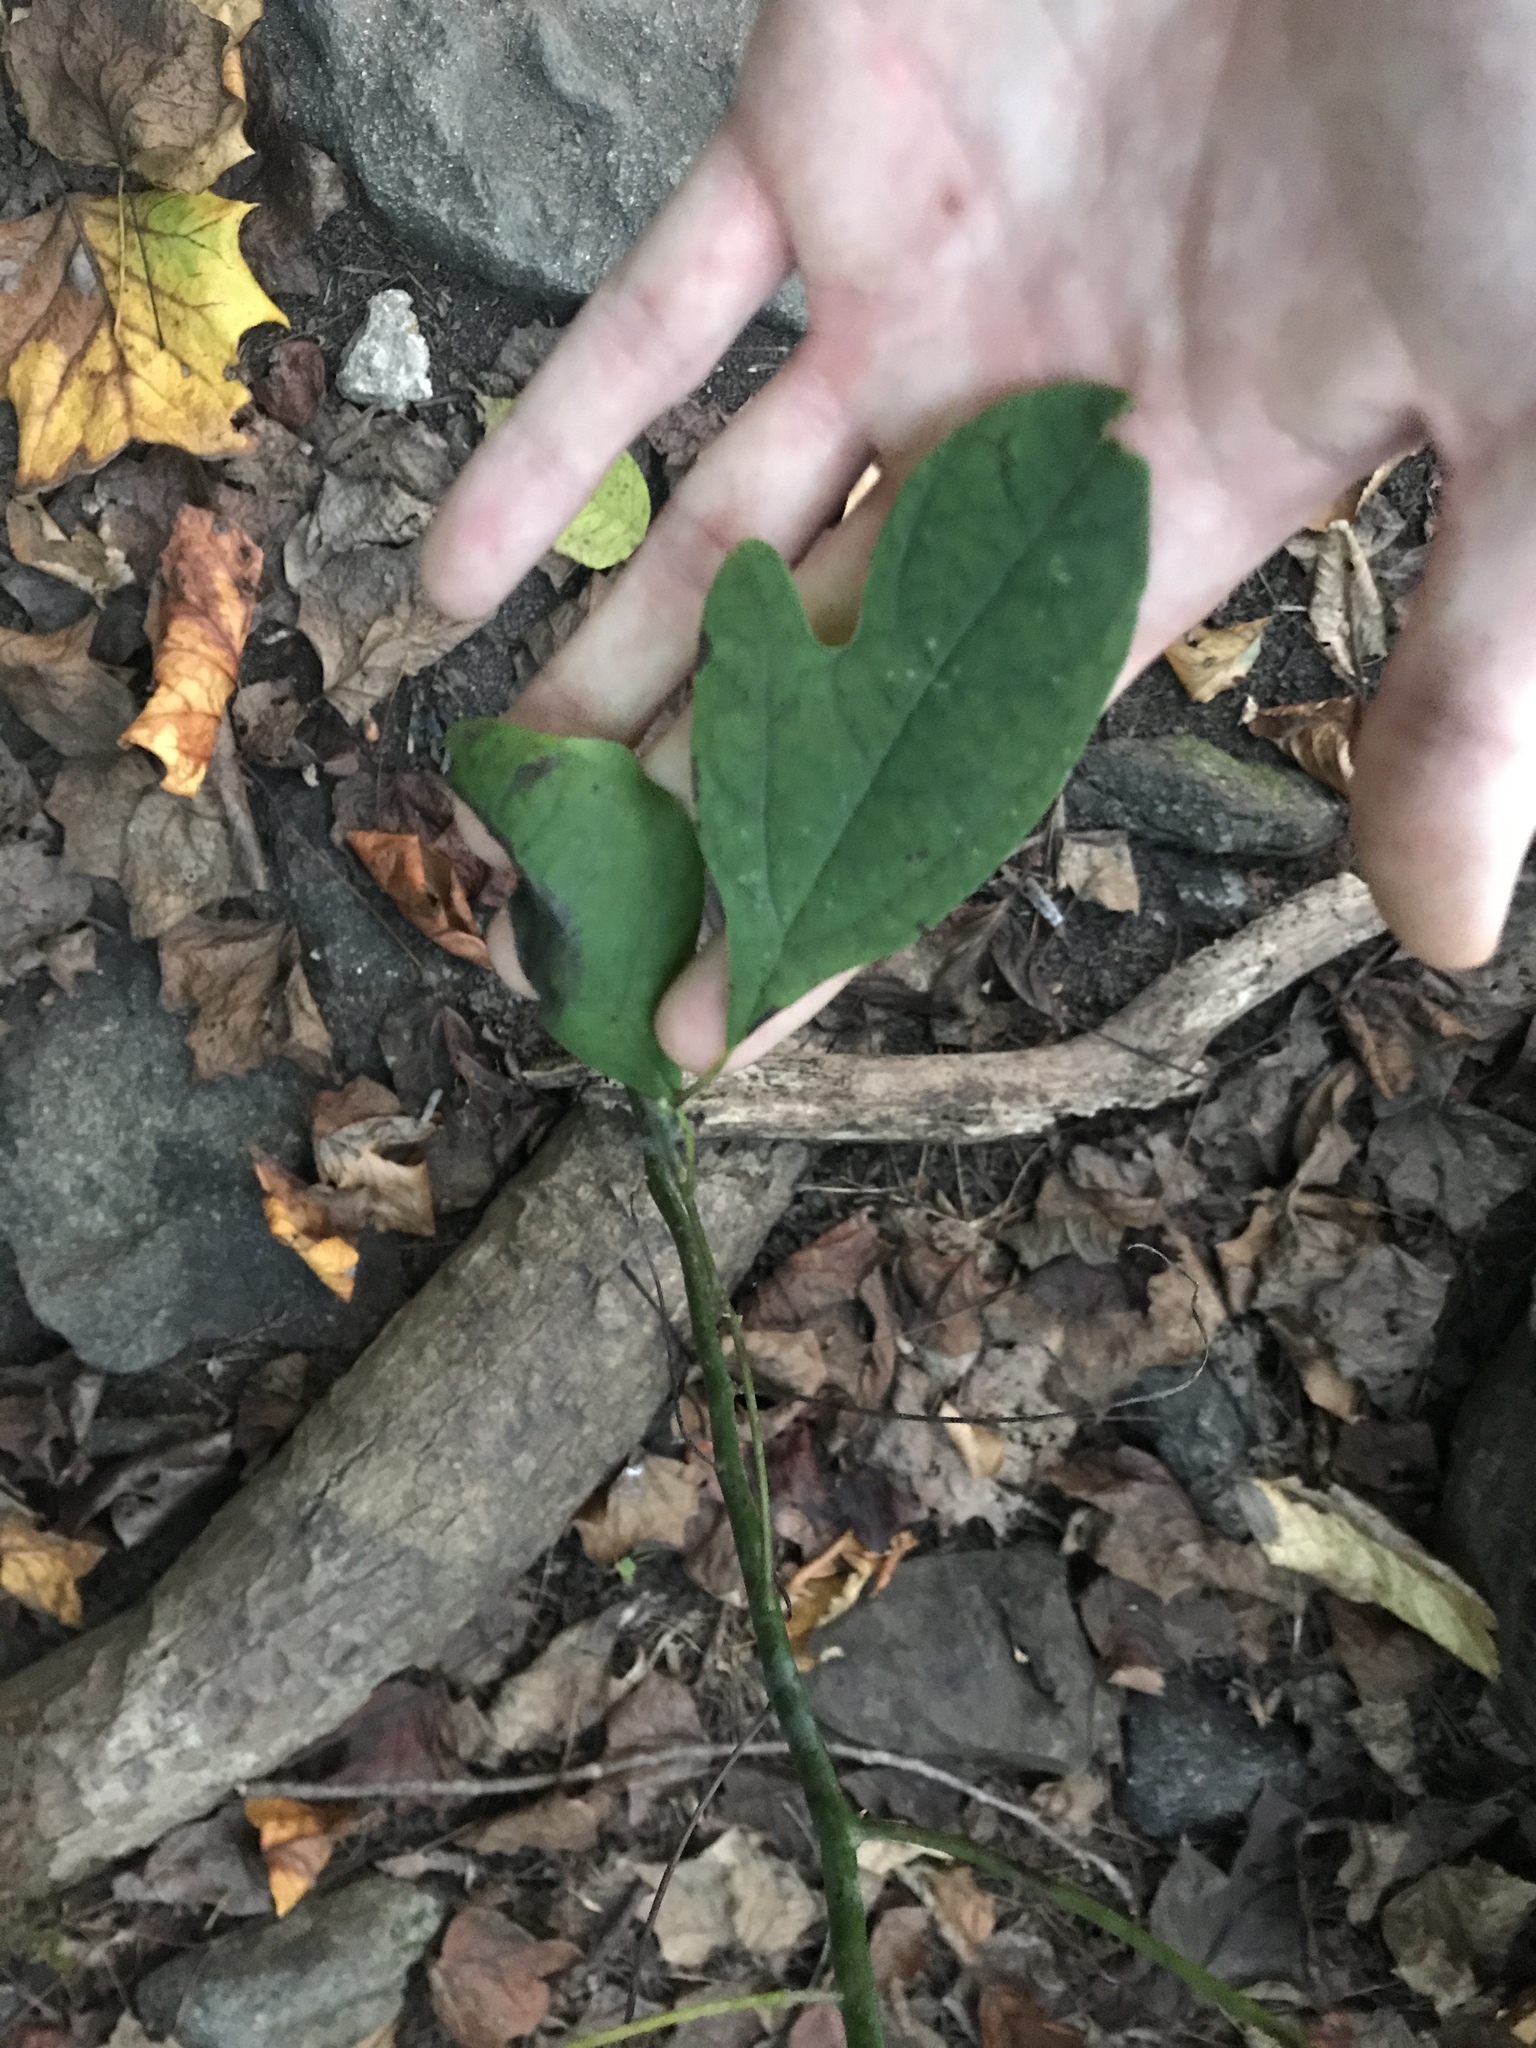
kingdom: Plantae
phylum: Tracheophyta
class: Magnoliopsida
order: Laurales
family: Lauraceae
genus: Sassafras
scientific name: Sassafras albidum
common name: Sassafras
